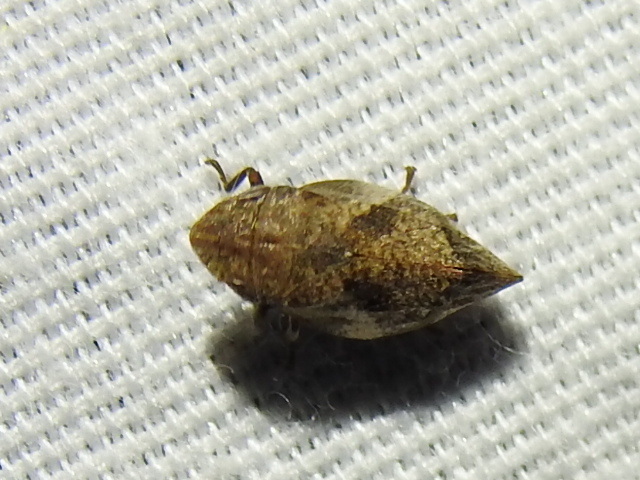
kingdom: Animalia
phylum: Arthropoda
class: Insecta
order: Hemiptera
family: Aphrophoridae
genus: Lepyronia
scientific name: Lepyronia quadrangularis
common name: Diamond-backed spittlebug
